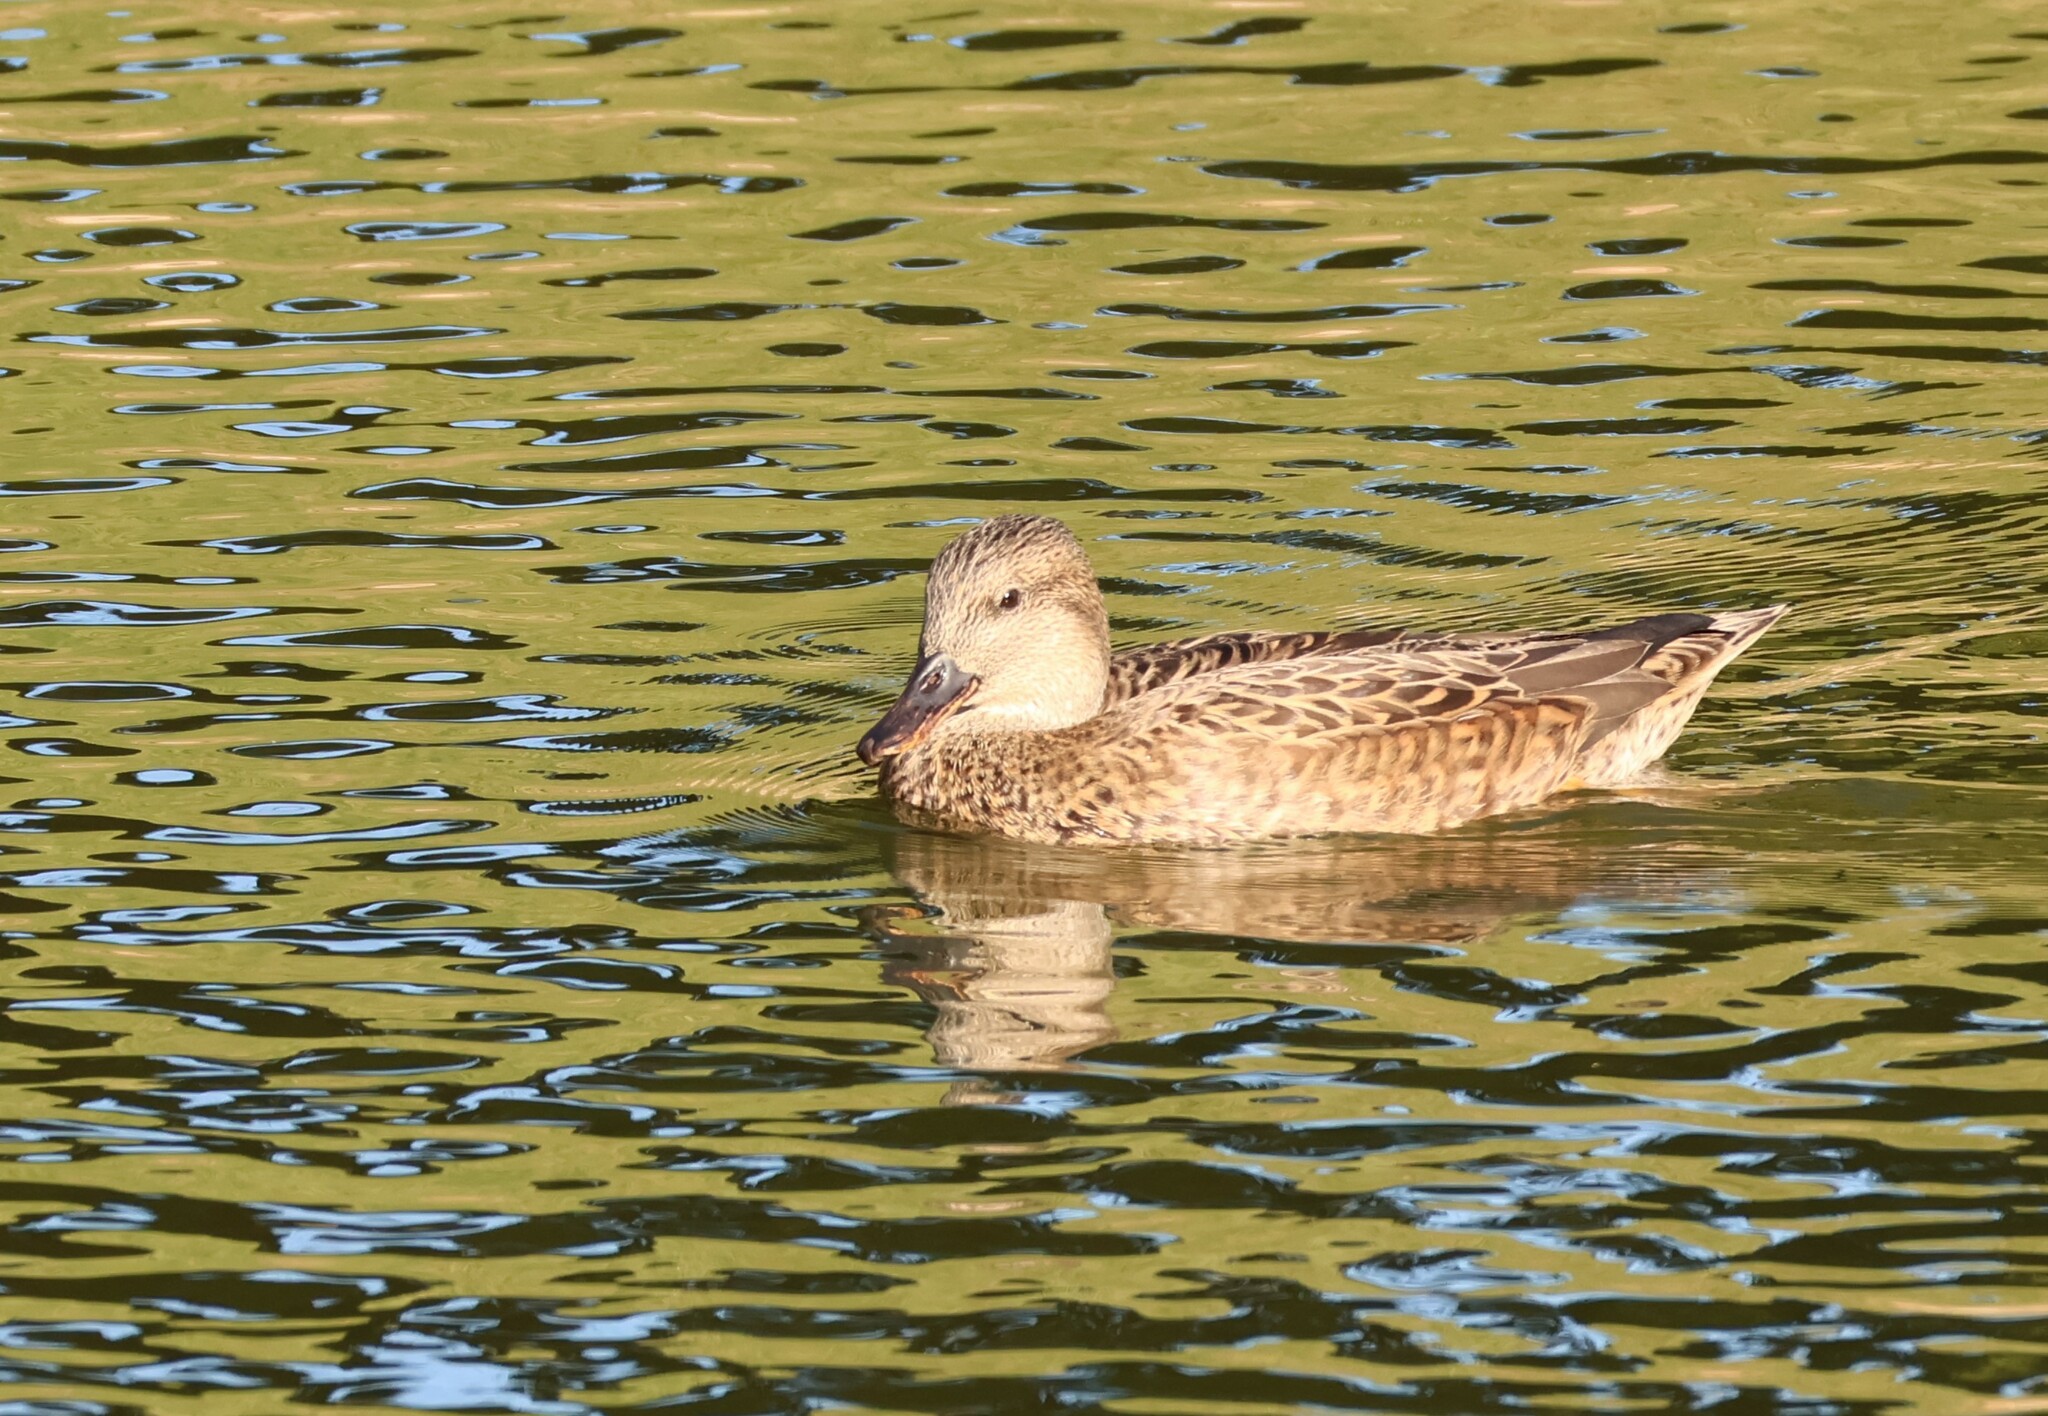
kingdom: Animalia
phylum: Chordata
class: Aves
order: Anseriformes
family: Anatidae
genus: Mareca
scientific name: Mareca strepera
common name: Gadwall
